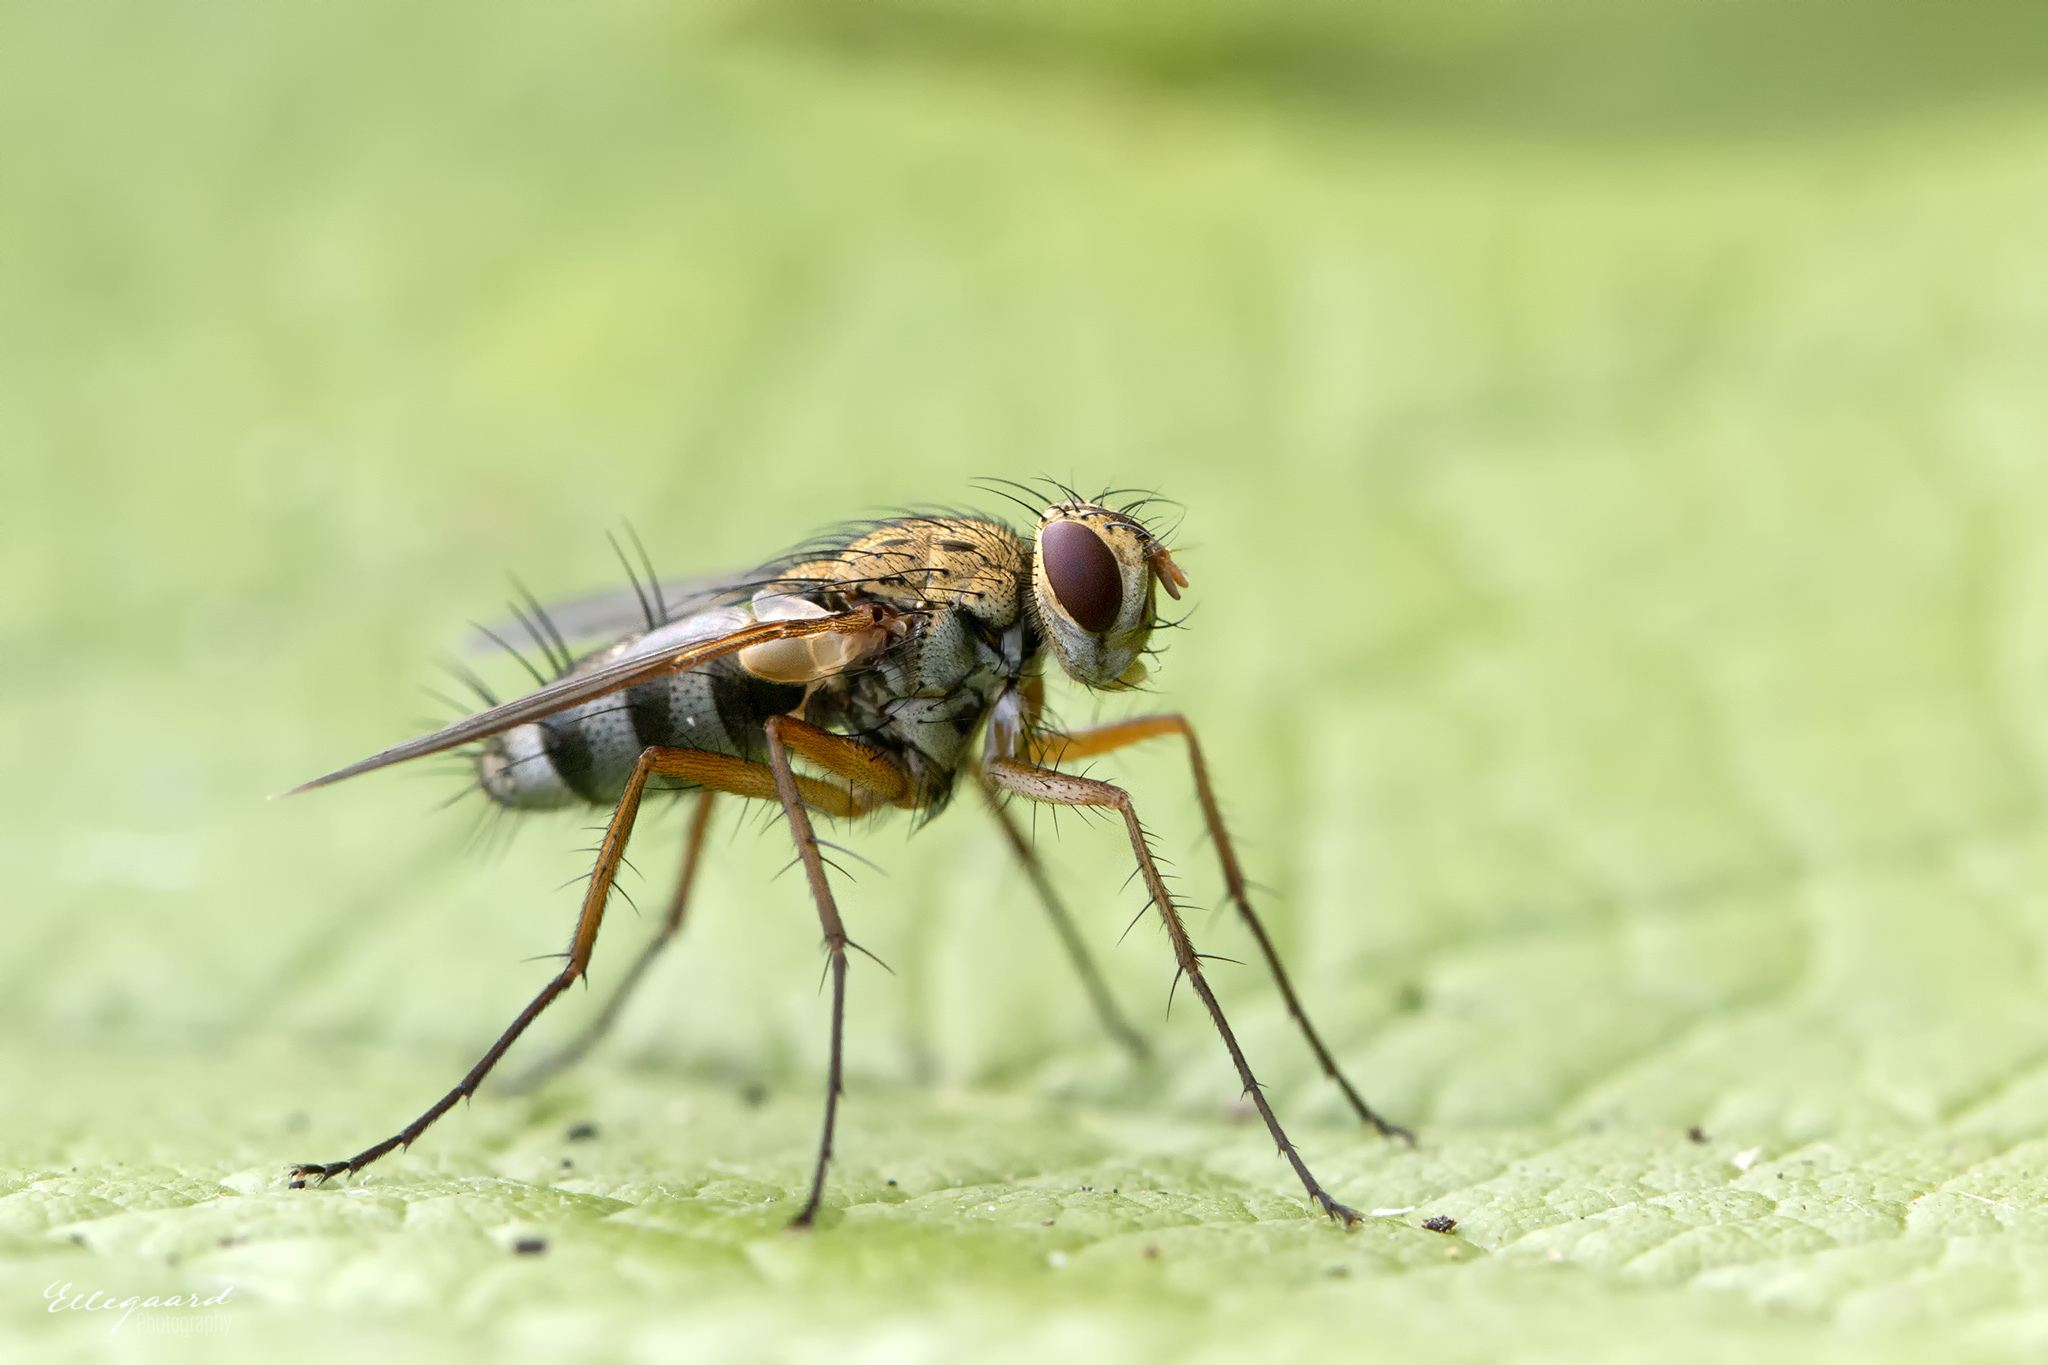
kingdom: Animalia
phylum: Arthropoda
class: Insecta
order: Diptera
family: Tachinidae
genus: Dexiosoma
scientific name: Dexiosoma caninum
